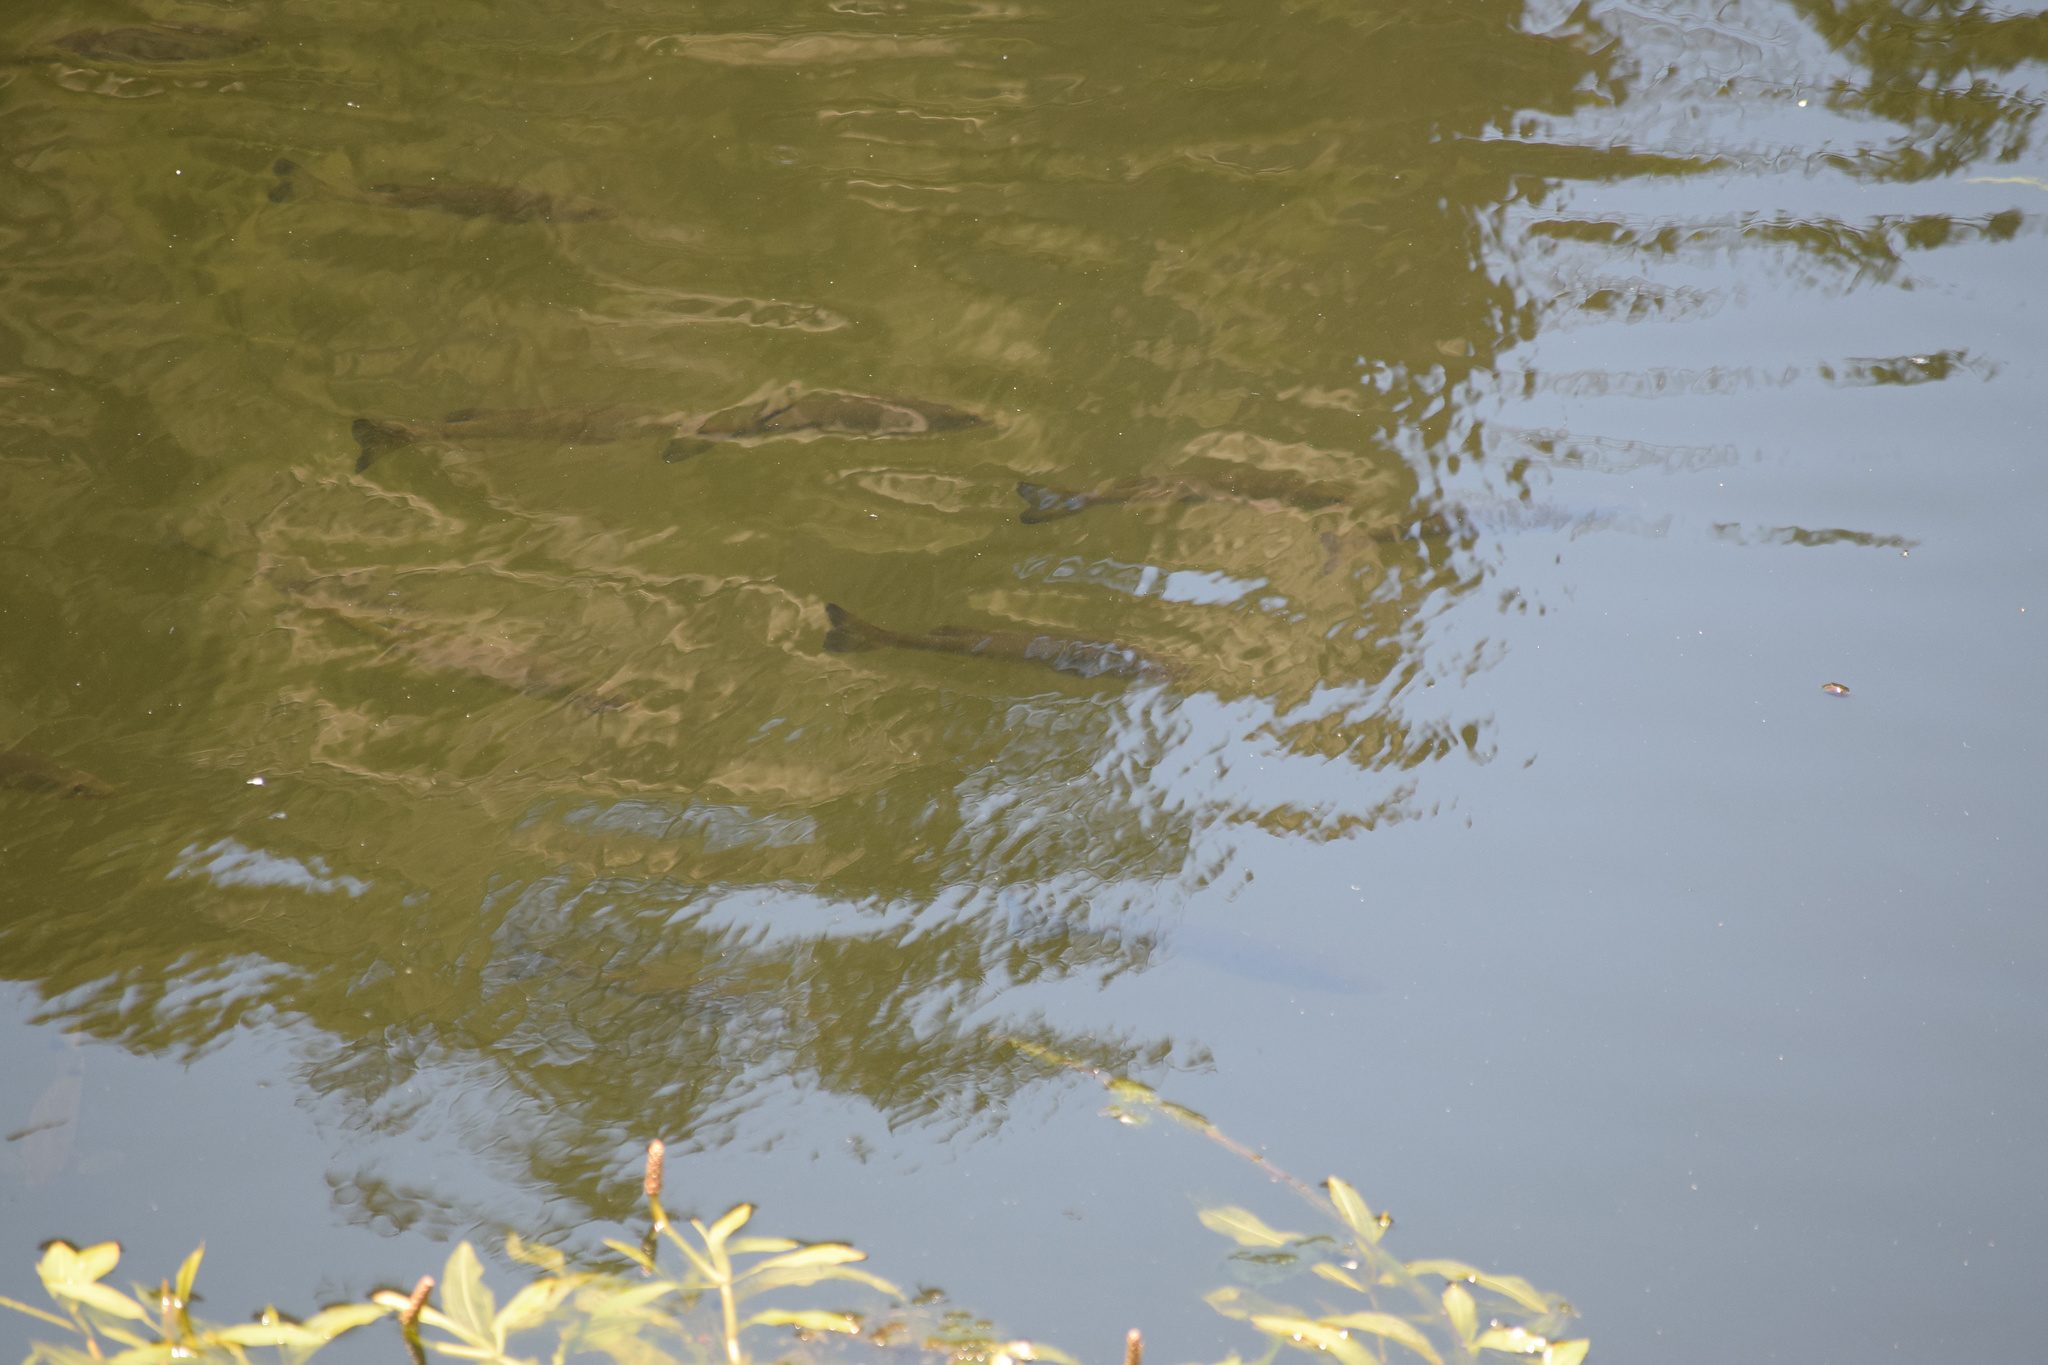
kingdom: Animalia
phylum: Chordata
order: Perciformes
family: Centrarchidae
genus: Micropterus
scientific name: Micropterus
